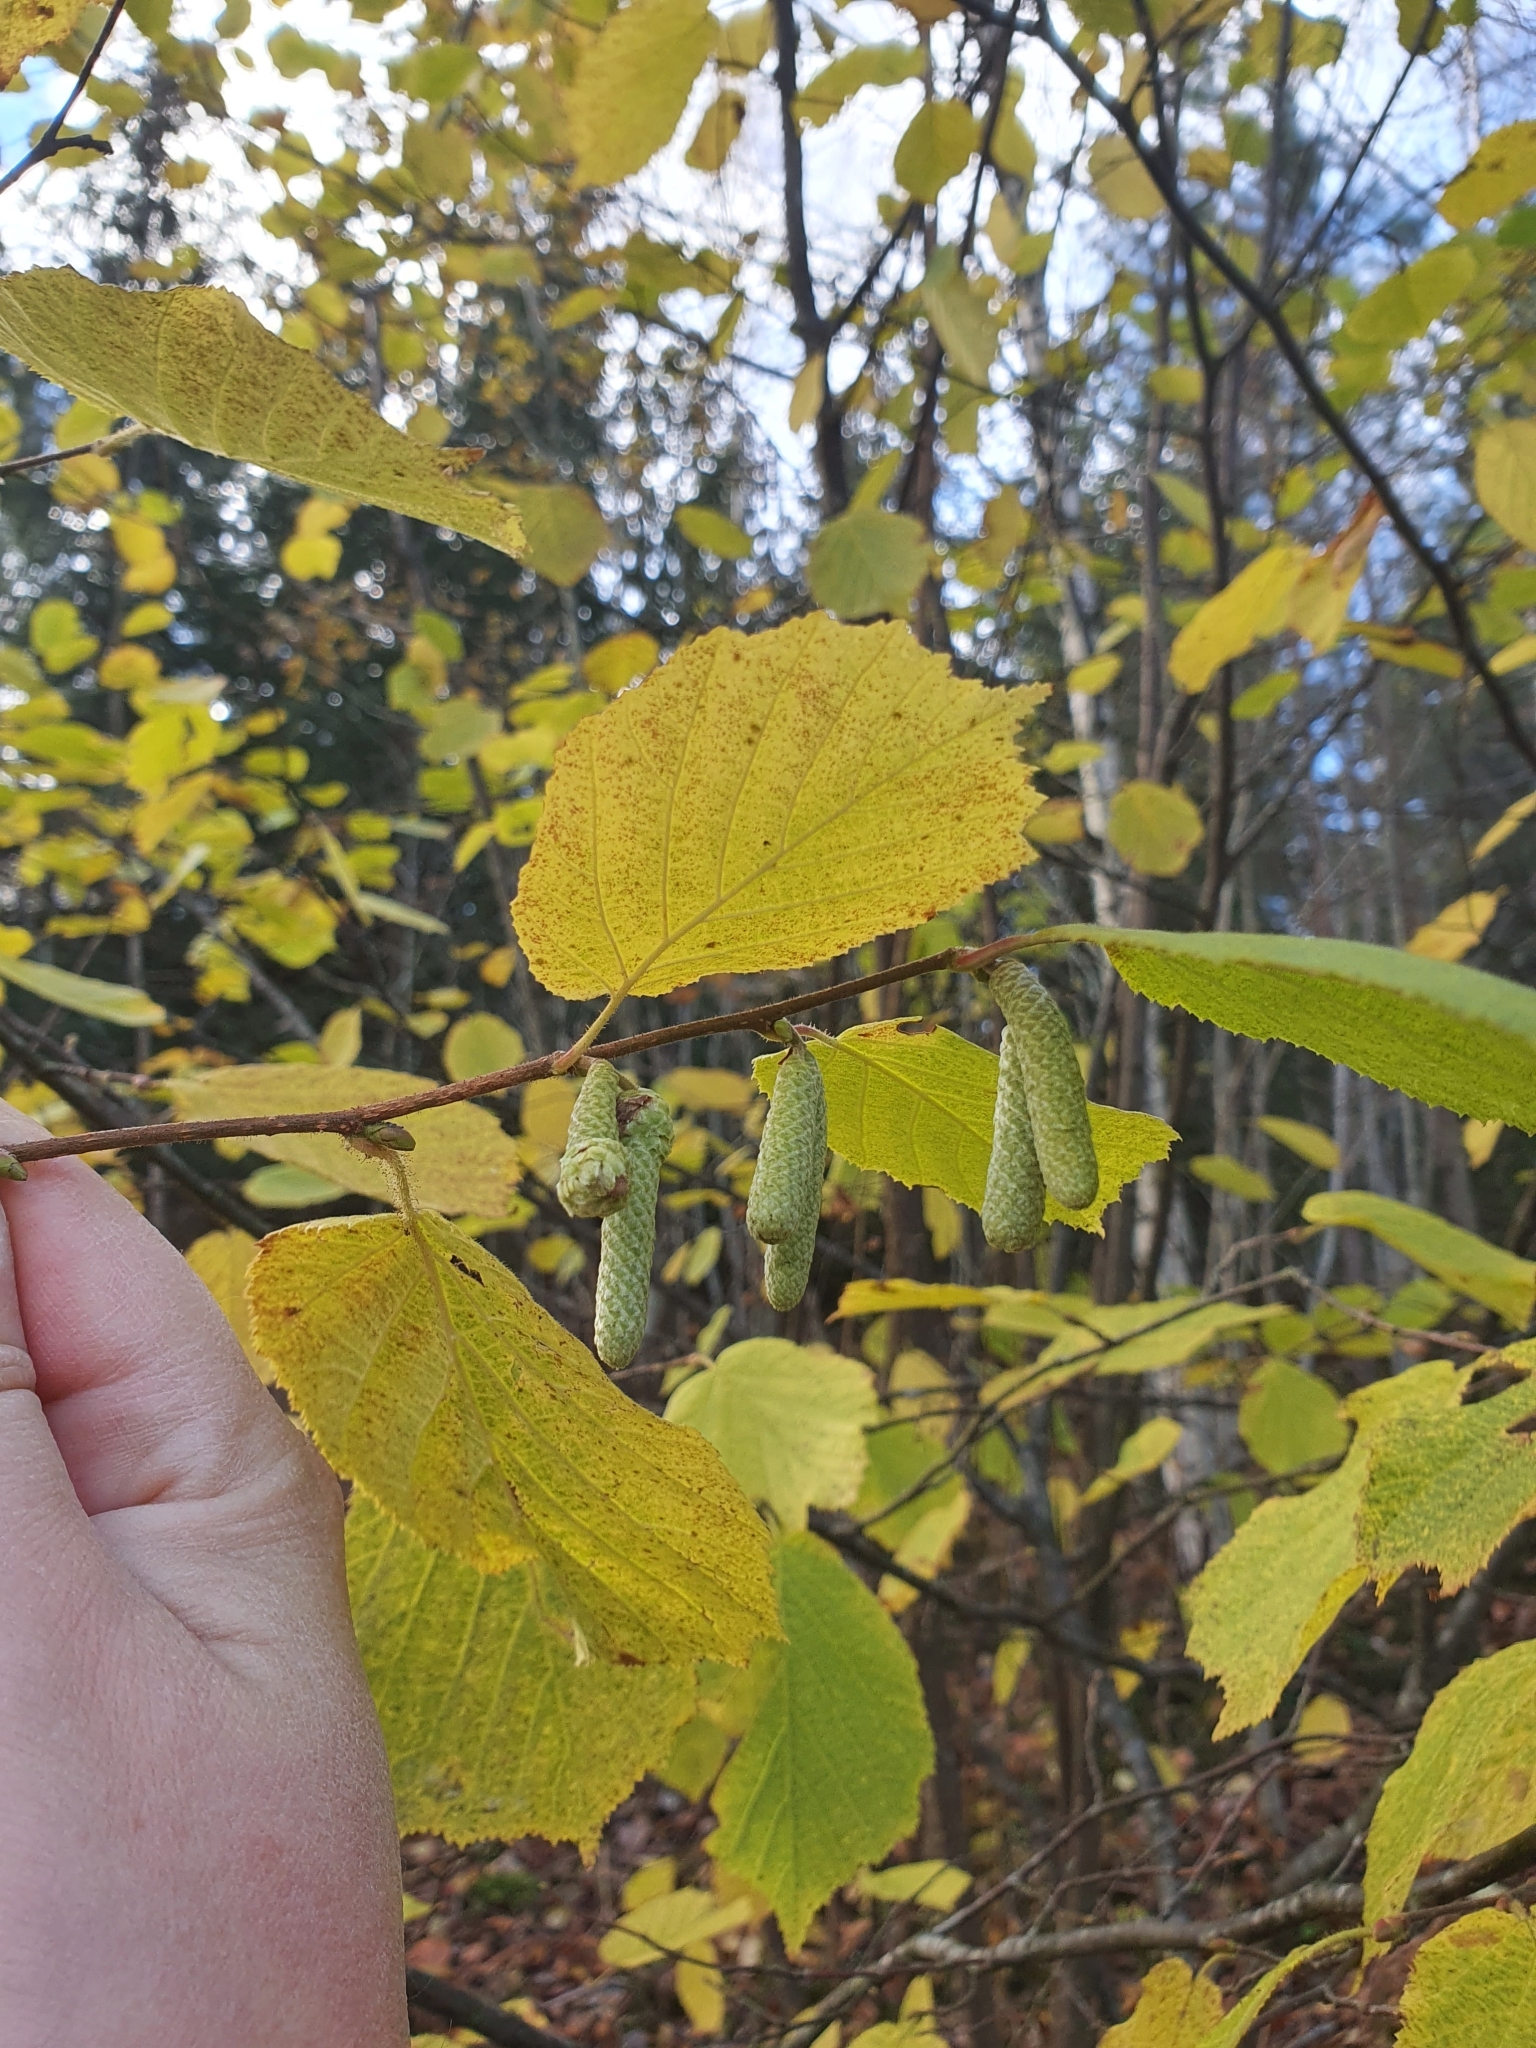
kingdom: Plantae
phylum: Tracheophyta
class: Magnoliopsida
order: Fagales
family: Betulaceae
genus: Corylus
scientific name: Corylus avellana
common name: European hazel
